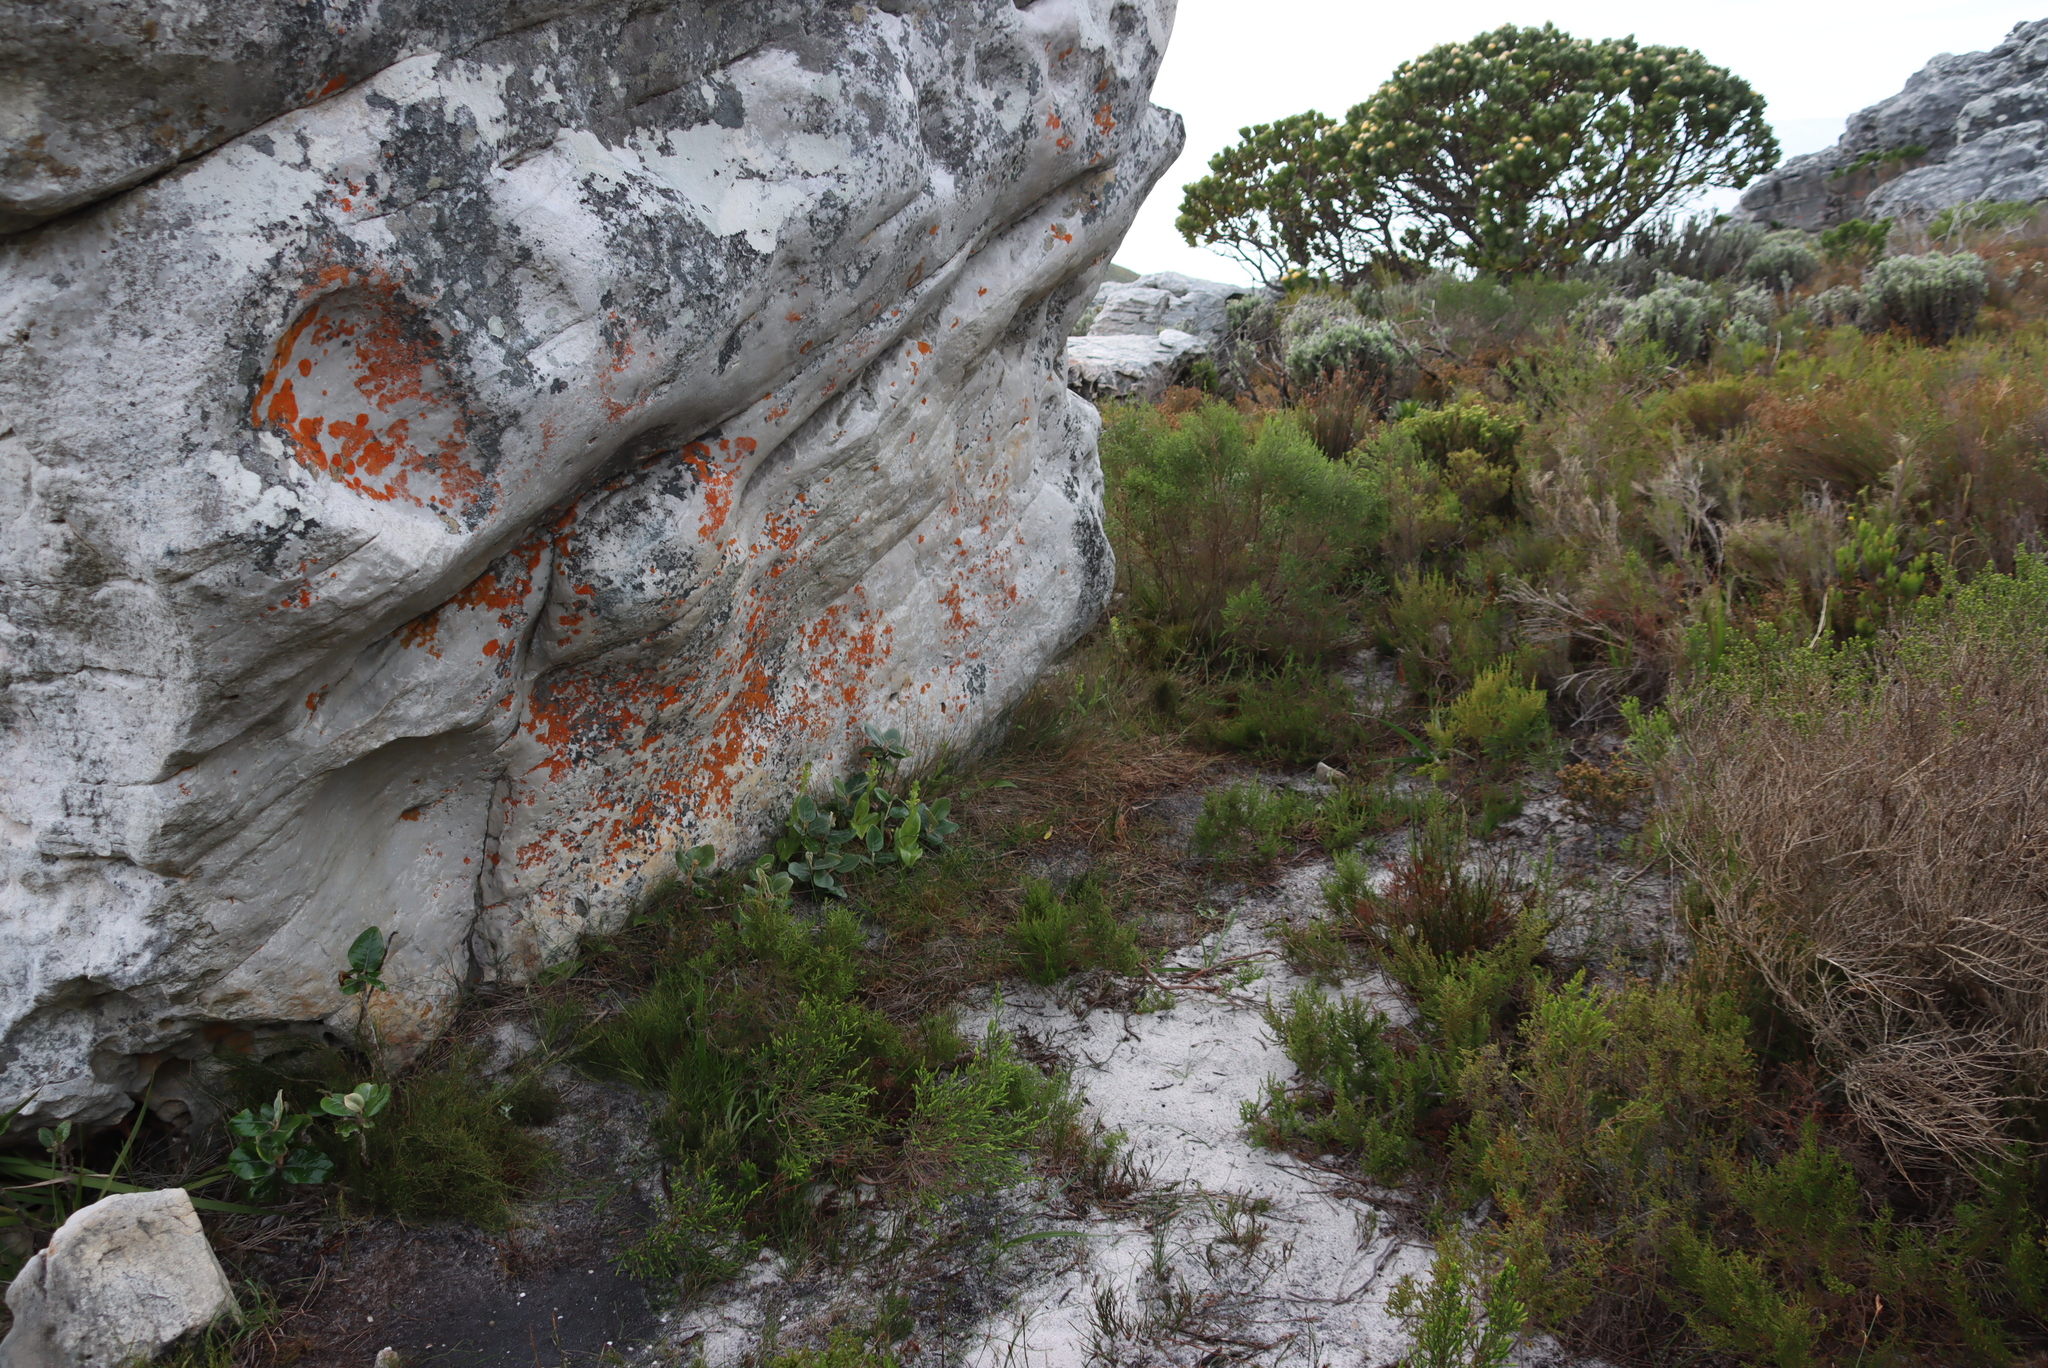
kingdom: Plantae
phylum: Tracheophyta
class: Liliopsida
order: Asparagales
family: Orchidaceae
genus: Satyrium
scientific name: Satyrium odorum
